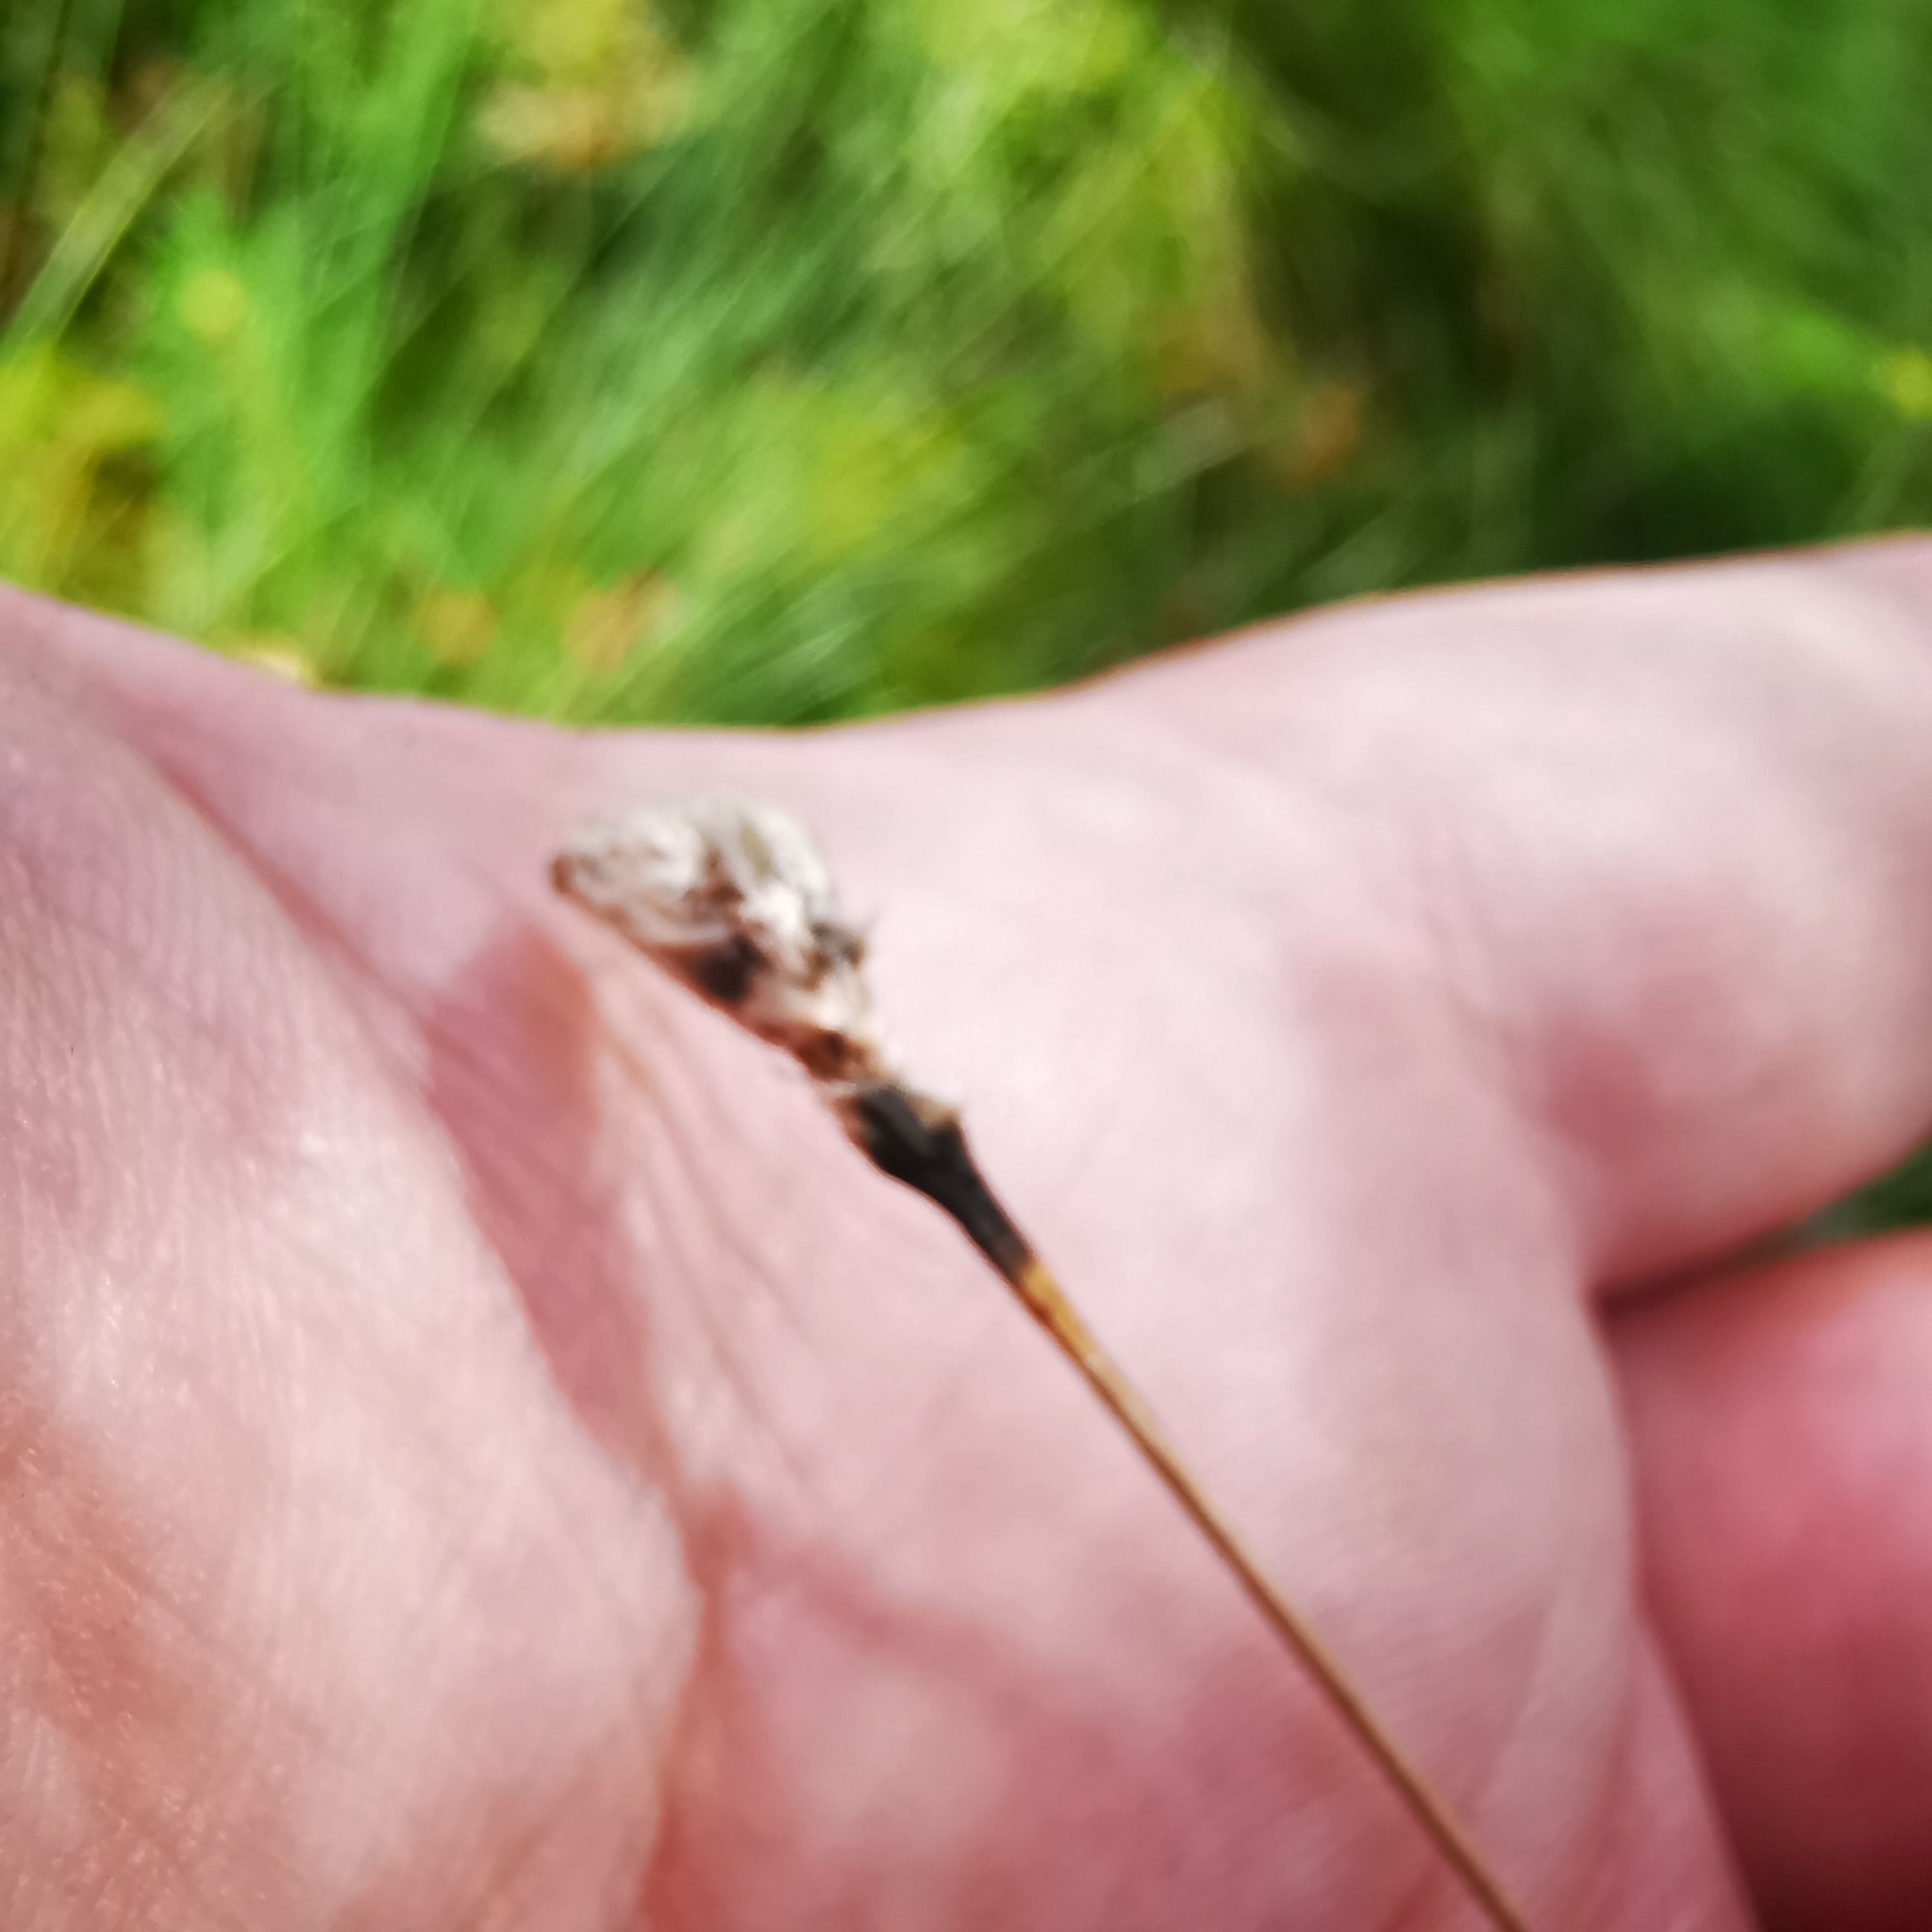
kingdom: Plantae
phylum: Tracheophyta
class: Liliopsida
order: Poales
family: Cyperaceae
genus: Eriophorum
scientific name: Eriophorum vaginatum
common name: Hare's-tail cottongrass
